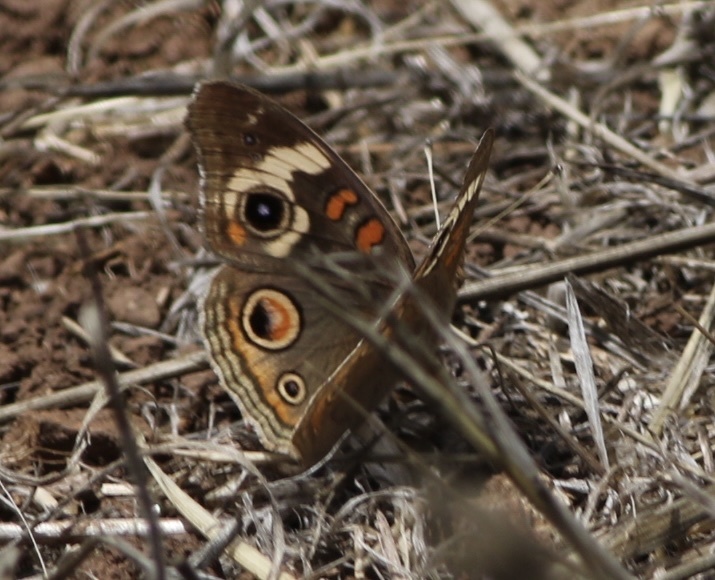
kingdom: Animalia
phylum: Arthropoda
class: Insecta
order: Lepidoptera
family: Nymphalidae
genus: Junonia
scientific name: Junonia grisea
